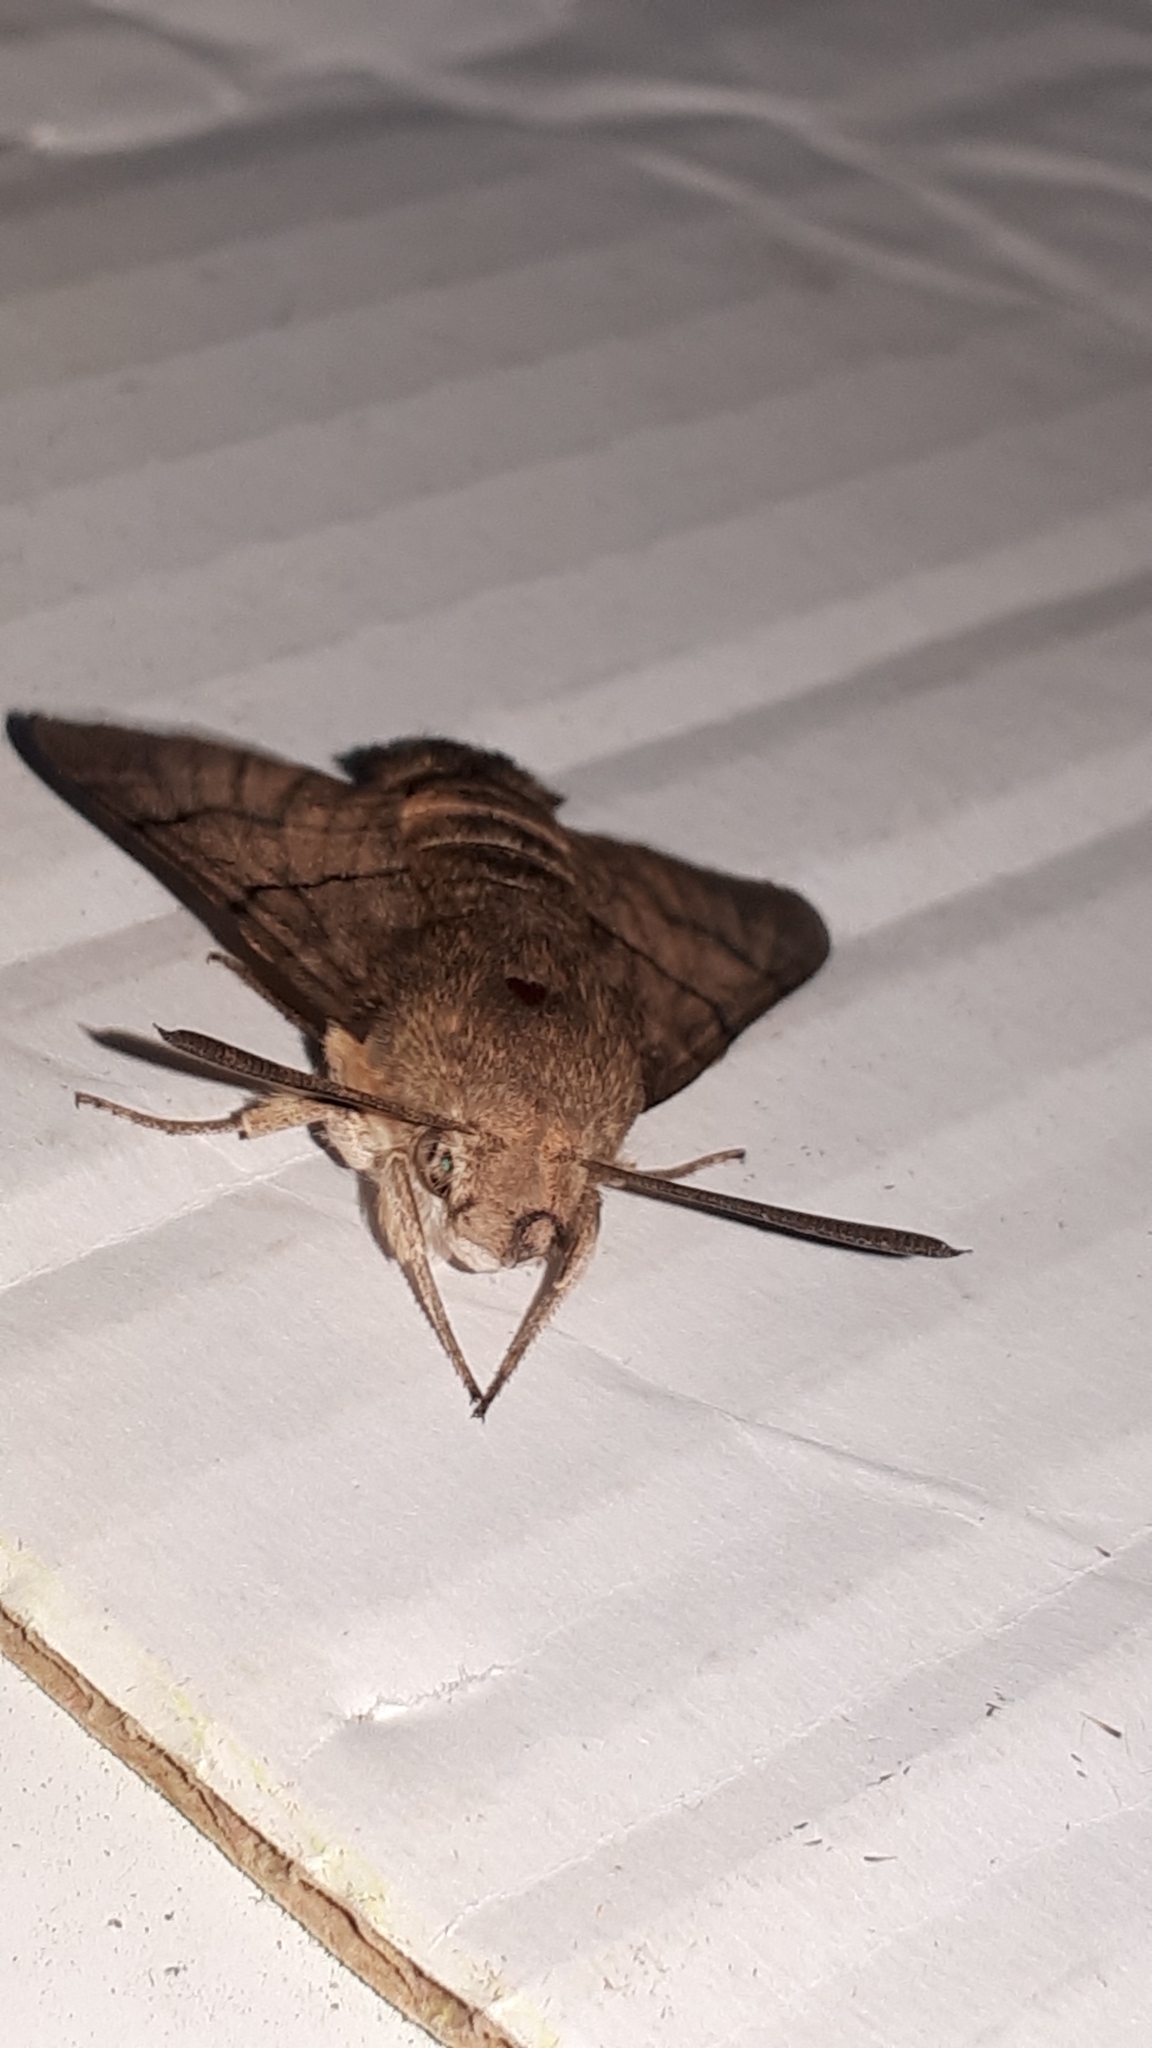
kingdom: Animalia
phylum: Arthropoda
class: Insecta
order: Lepidoptera
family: Sphingidae
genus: Macroglossum
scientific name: Macroglossum stellatarum
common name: Humming-bird hawk-moth
